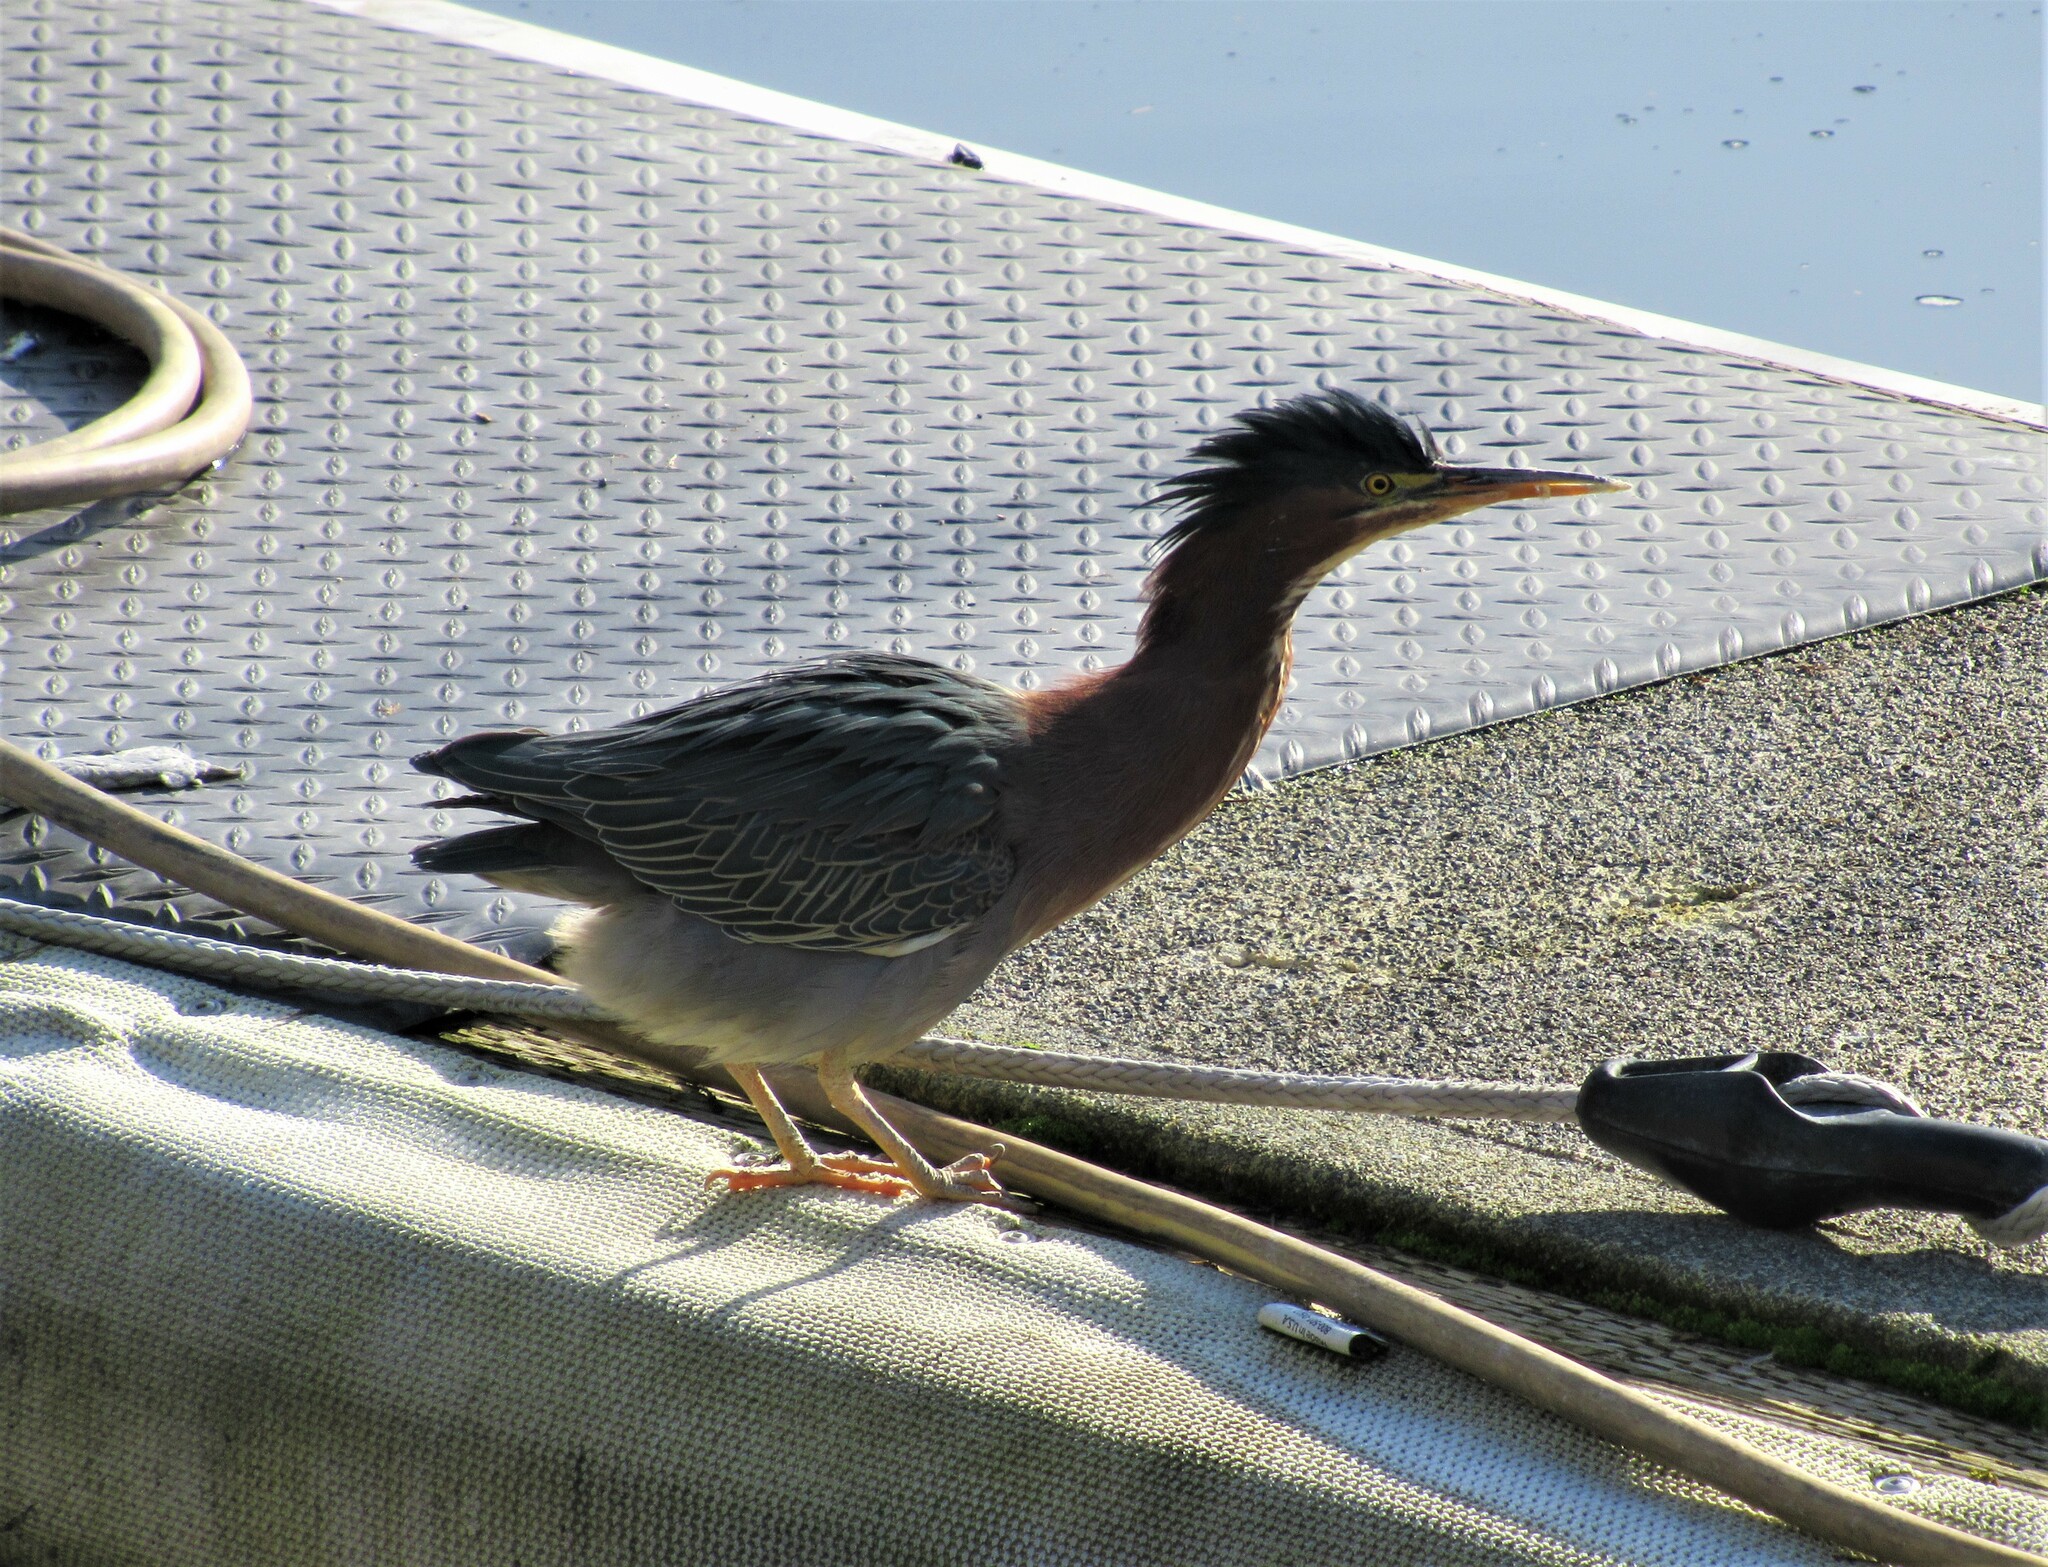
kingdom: Animalia
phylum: Chordata
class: Aves
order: Pelecaniformes
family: Ardeidae
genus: Butorides
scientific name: Butorides virescens
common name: Green heron
